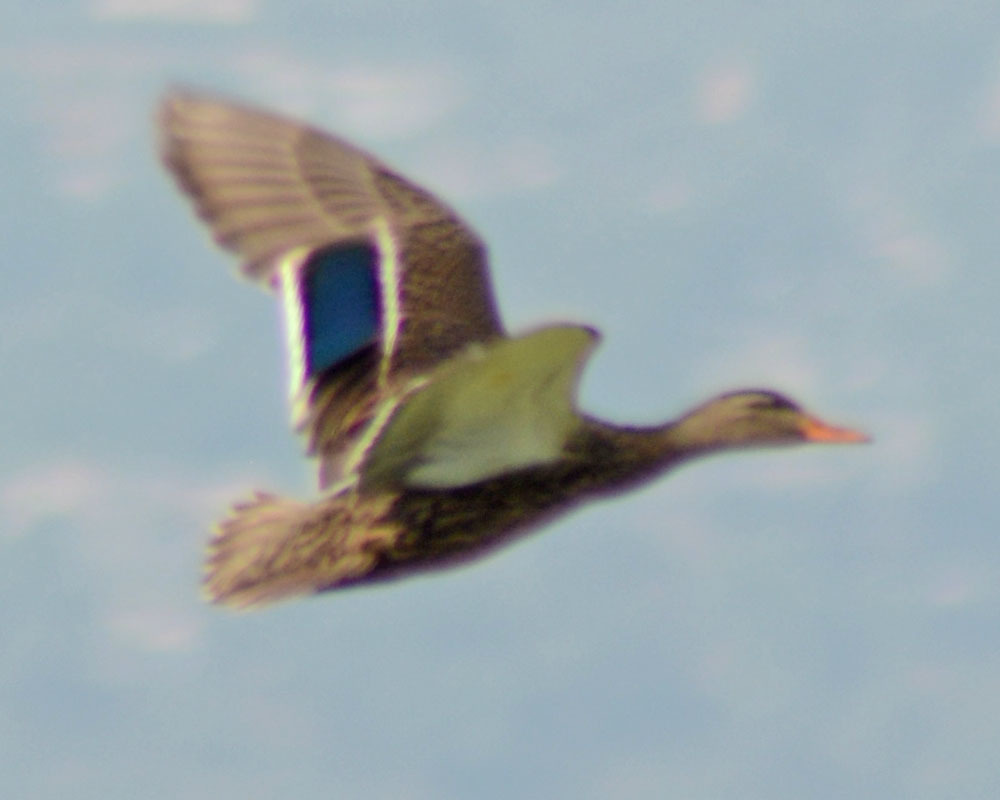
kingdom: Animalia
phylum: Chordata
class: Aves
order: Anseriformes
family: Anatidae
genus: Anas
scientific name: Anas diazi
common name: Mexican duck
